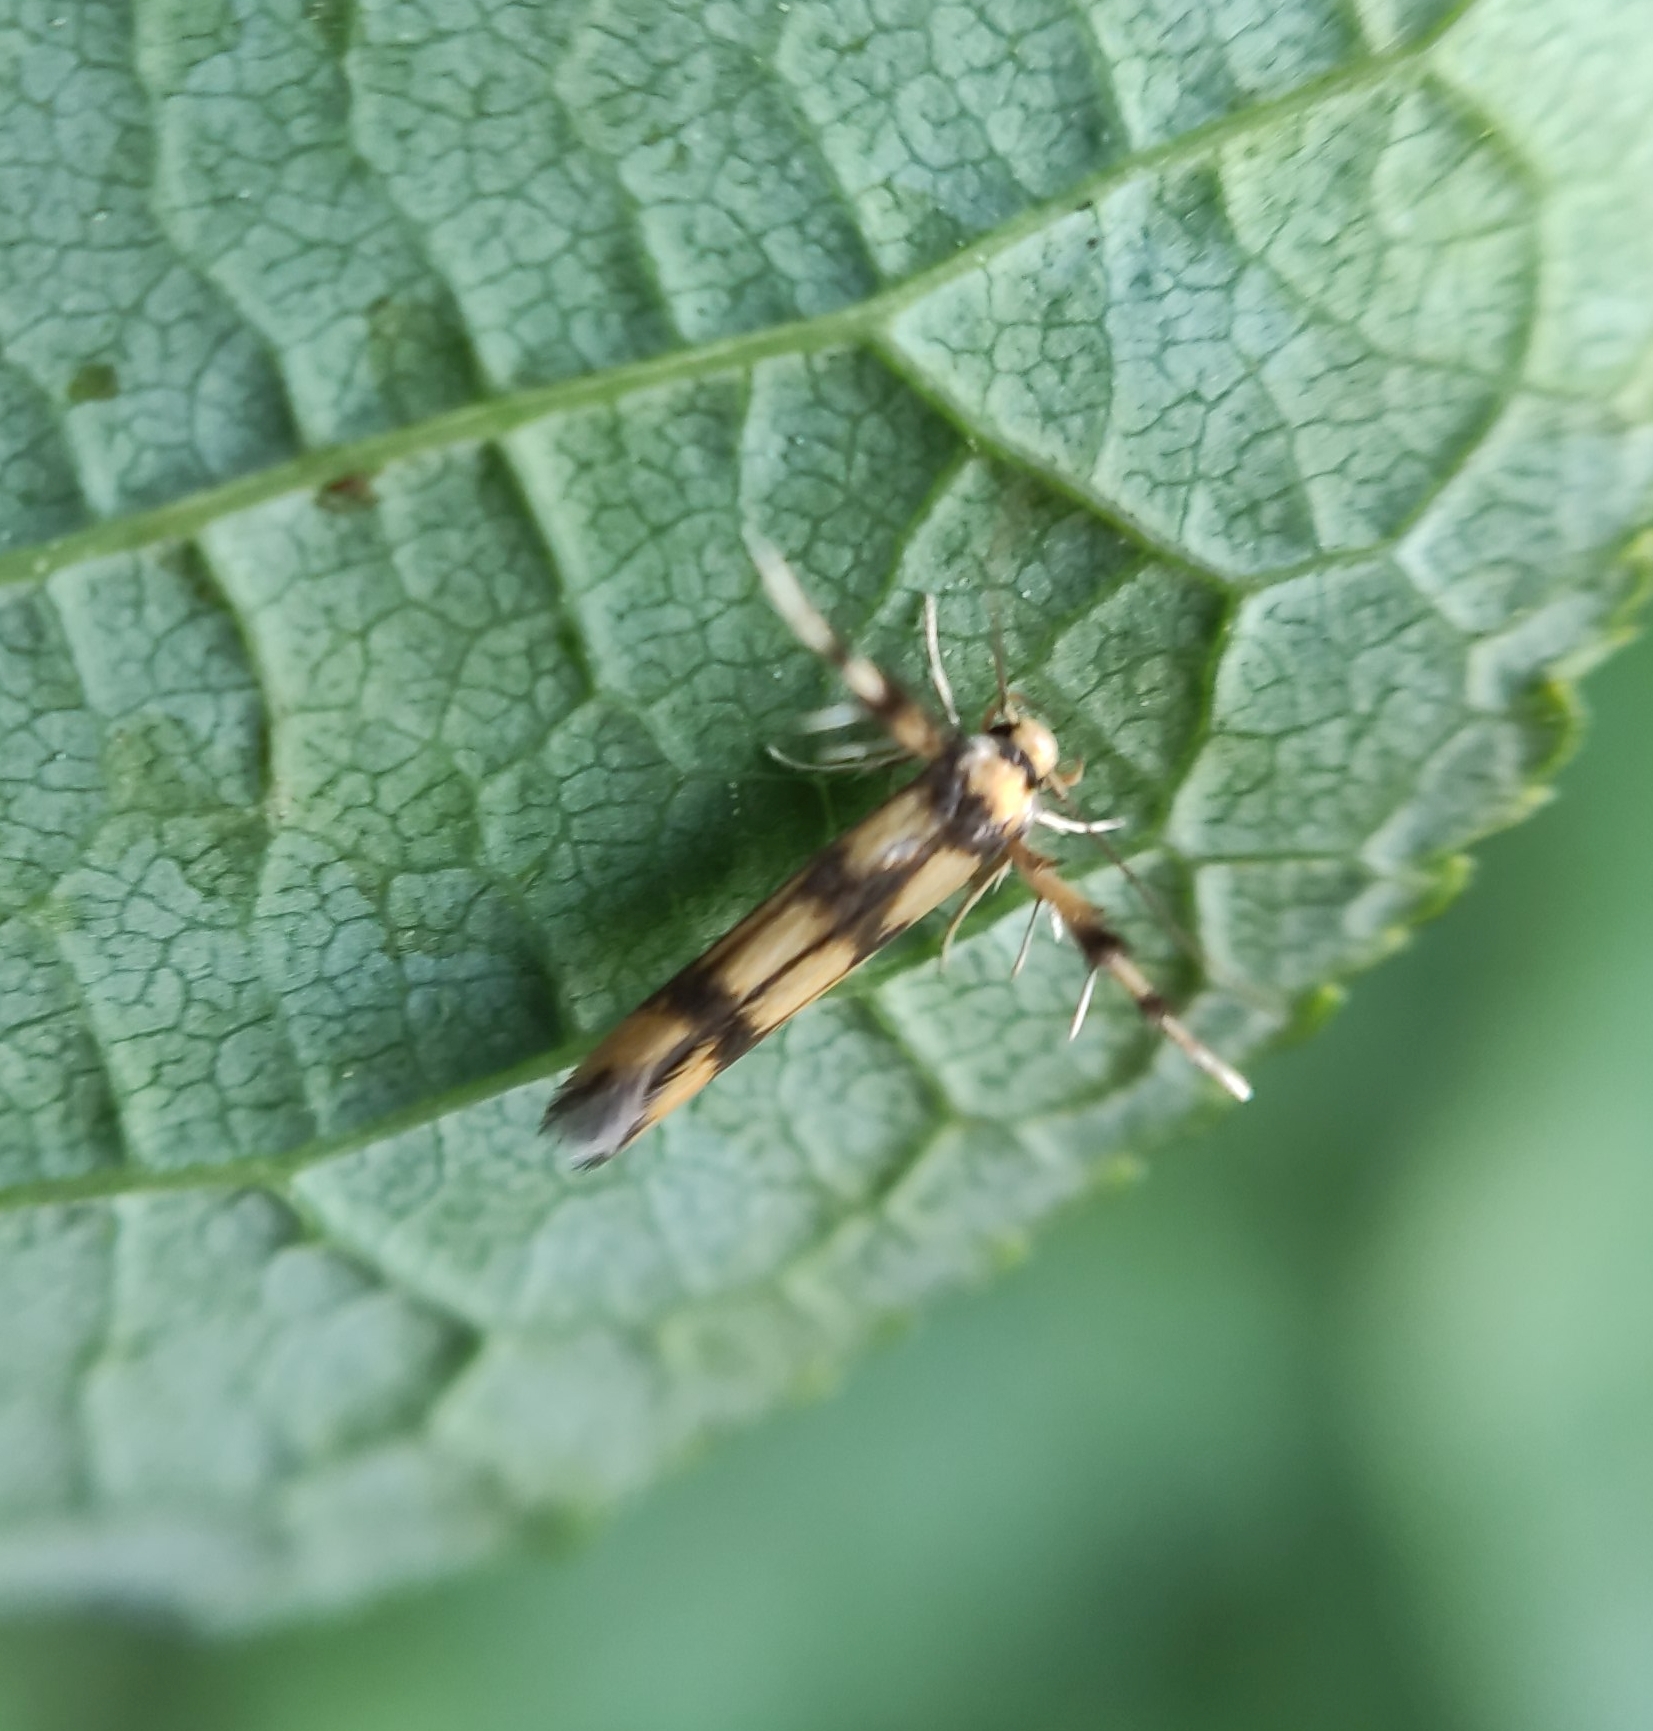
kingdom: Animalia
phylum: Arthropoda
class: Insecta
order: Lepidoptera
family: Stathmopodidae
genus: Stathmopoda
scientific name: Stathmopoda pedella
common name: Alder signal
